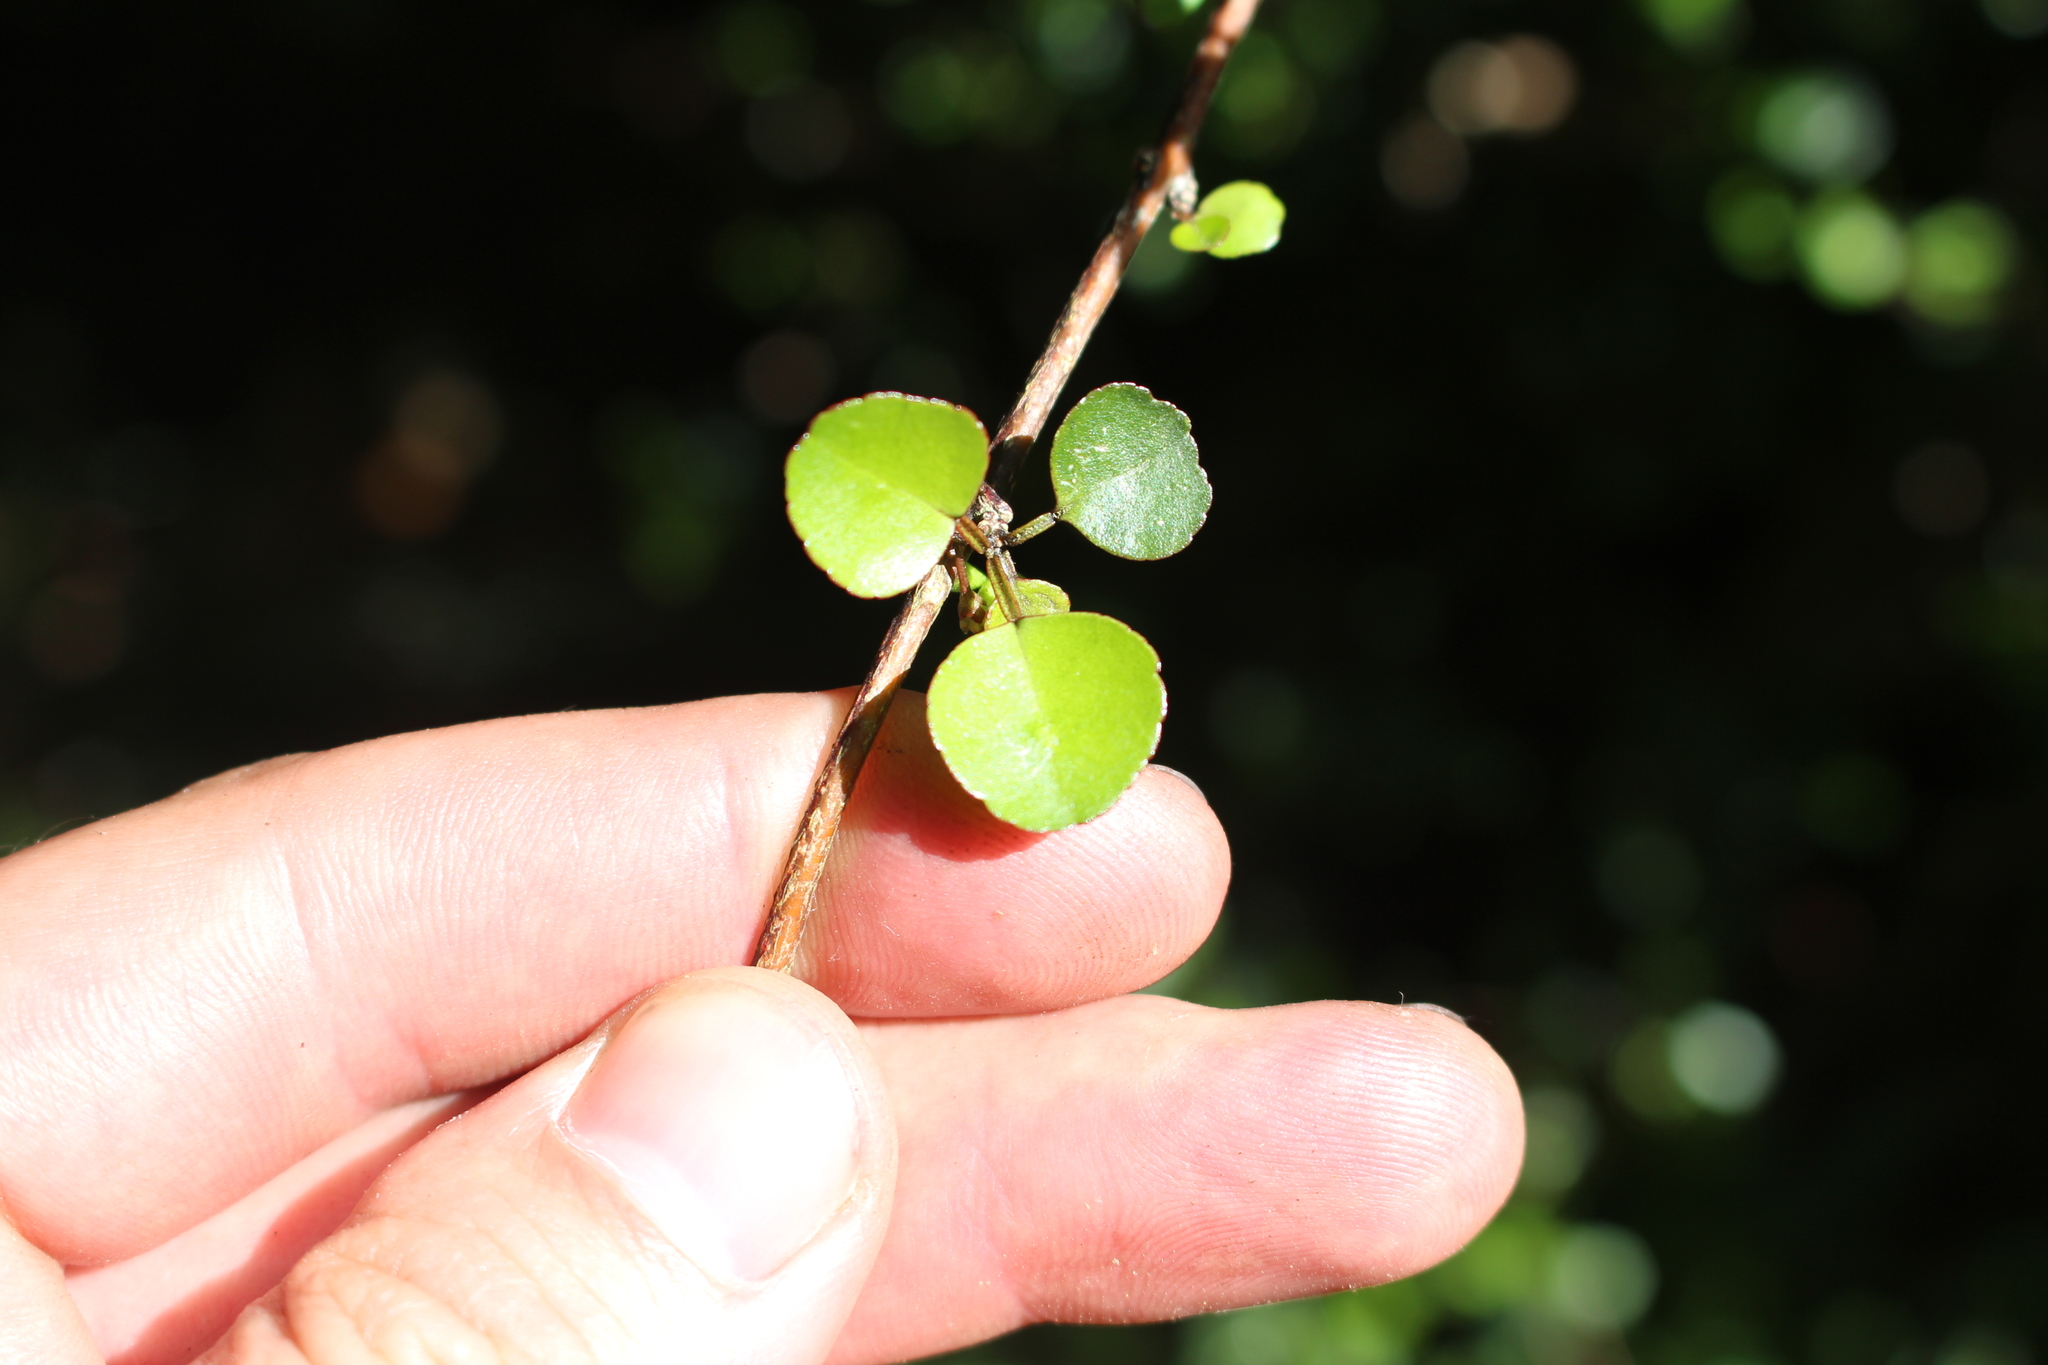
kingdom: Plantae
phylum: Tracheophyta
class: Magnoliopsida
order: Sapindales
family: Rutaceae
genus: Melicope
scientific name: Melicope simplex
